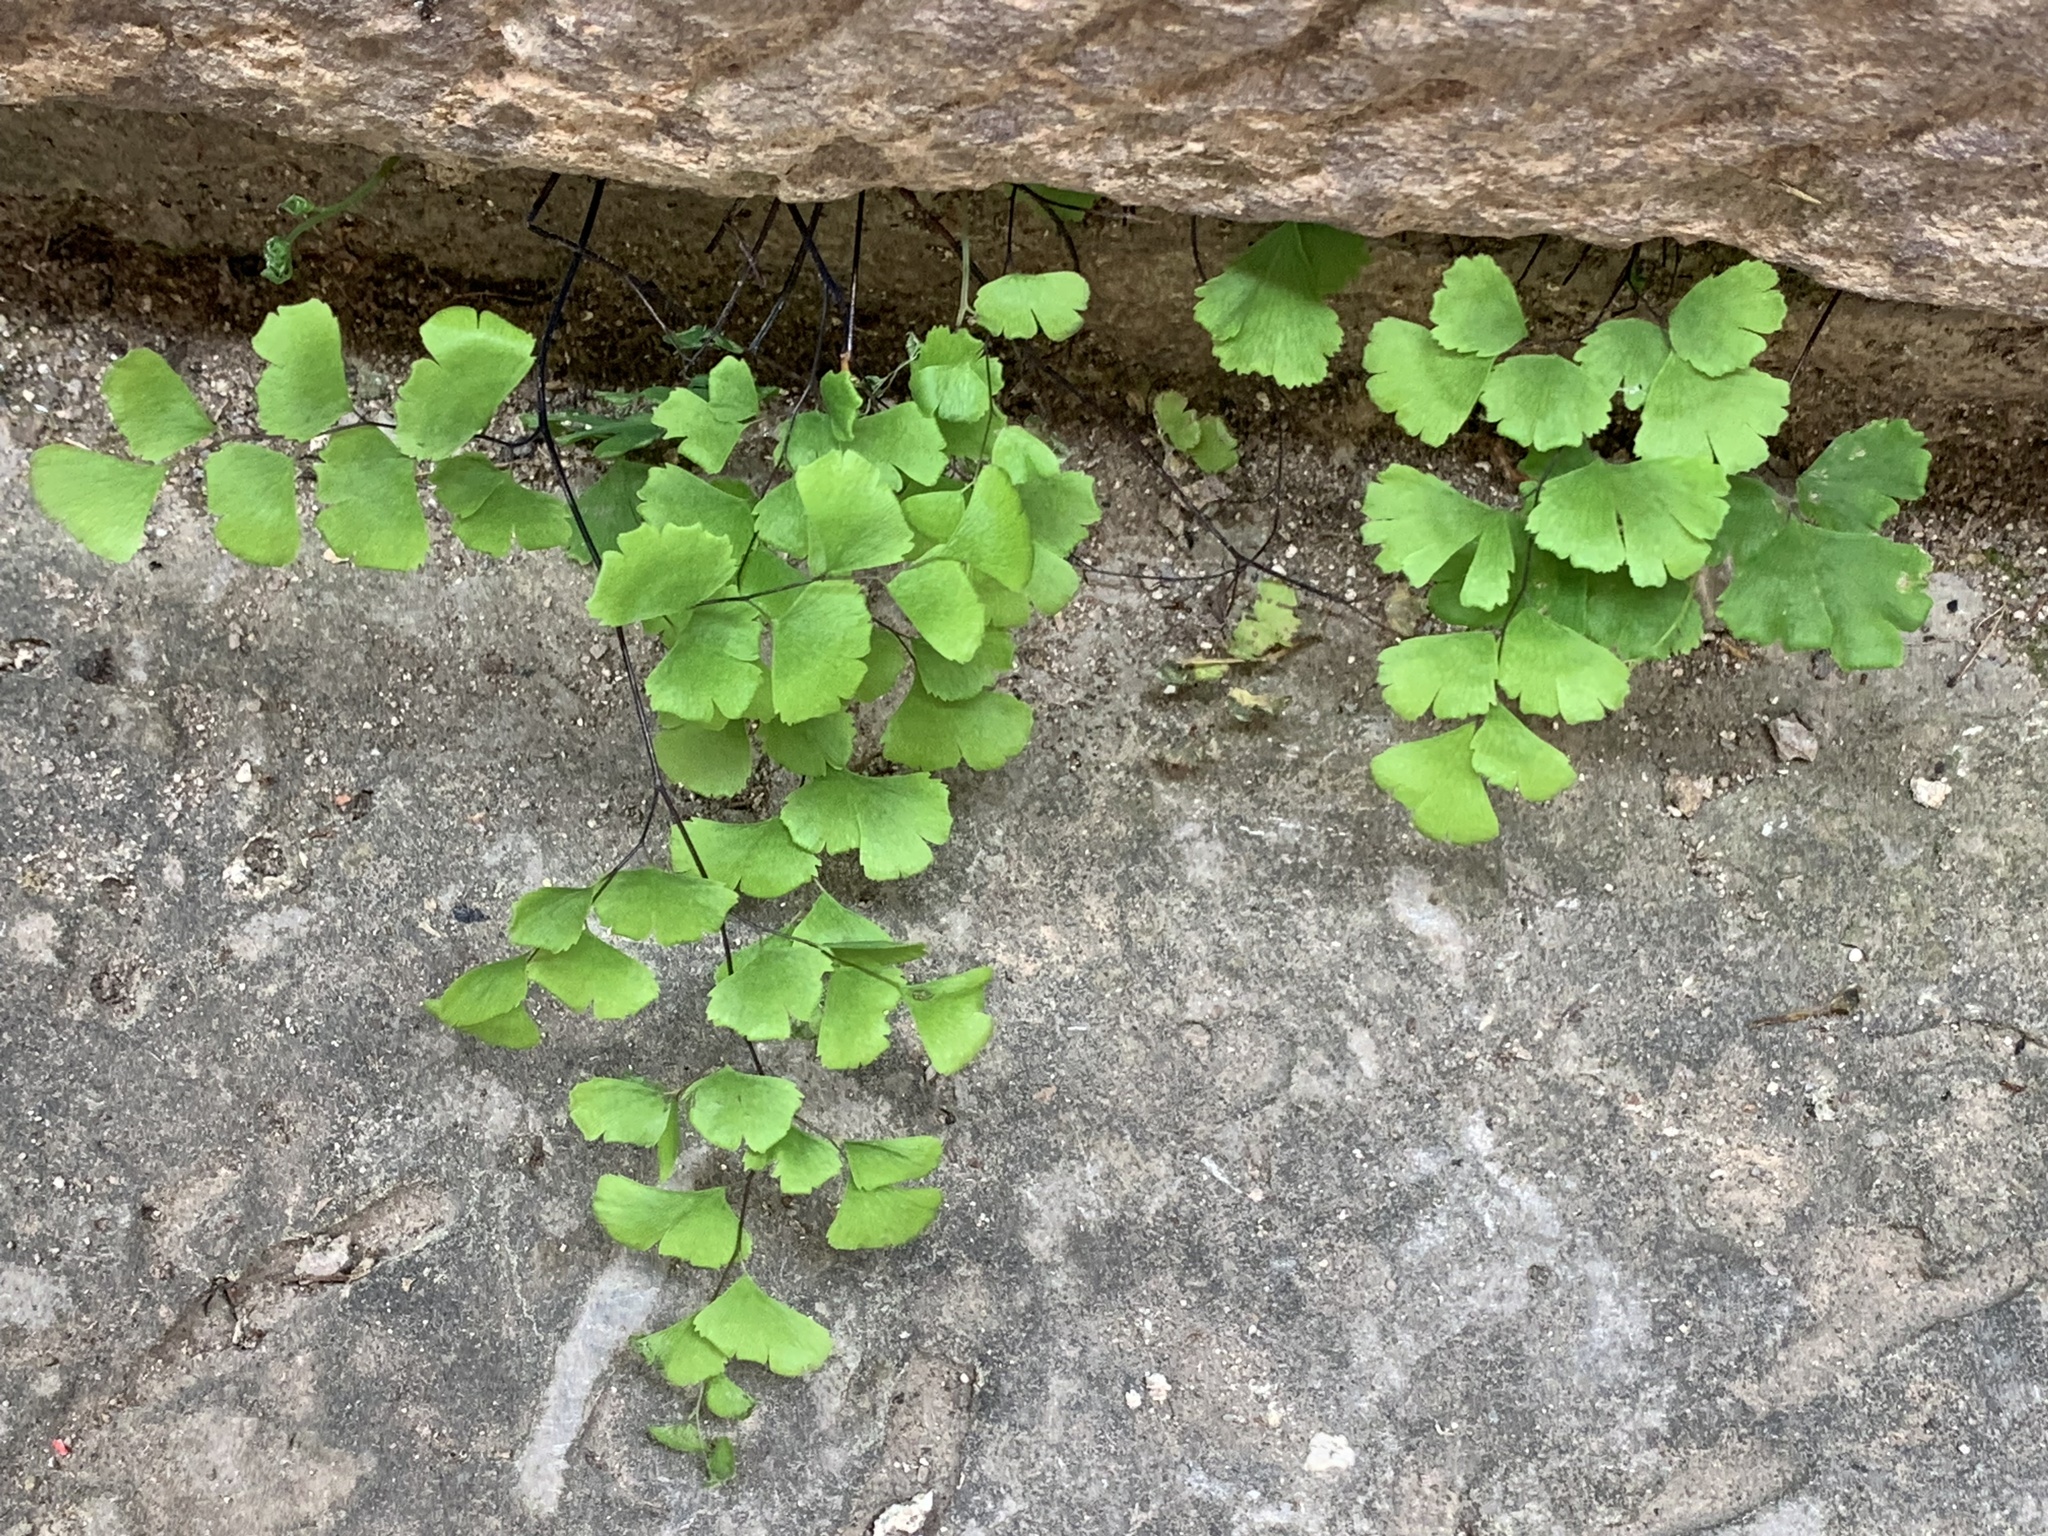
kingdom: Plantae
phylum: Tracheophyta
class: Polypodiopsida
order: Polypodiales
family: Pteridaceae
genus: Adiantum
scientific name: Adiantum capillus-veneris
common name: Maidenhair fern
